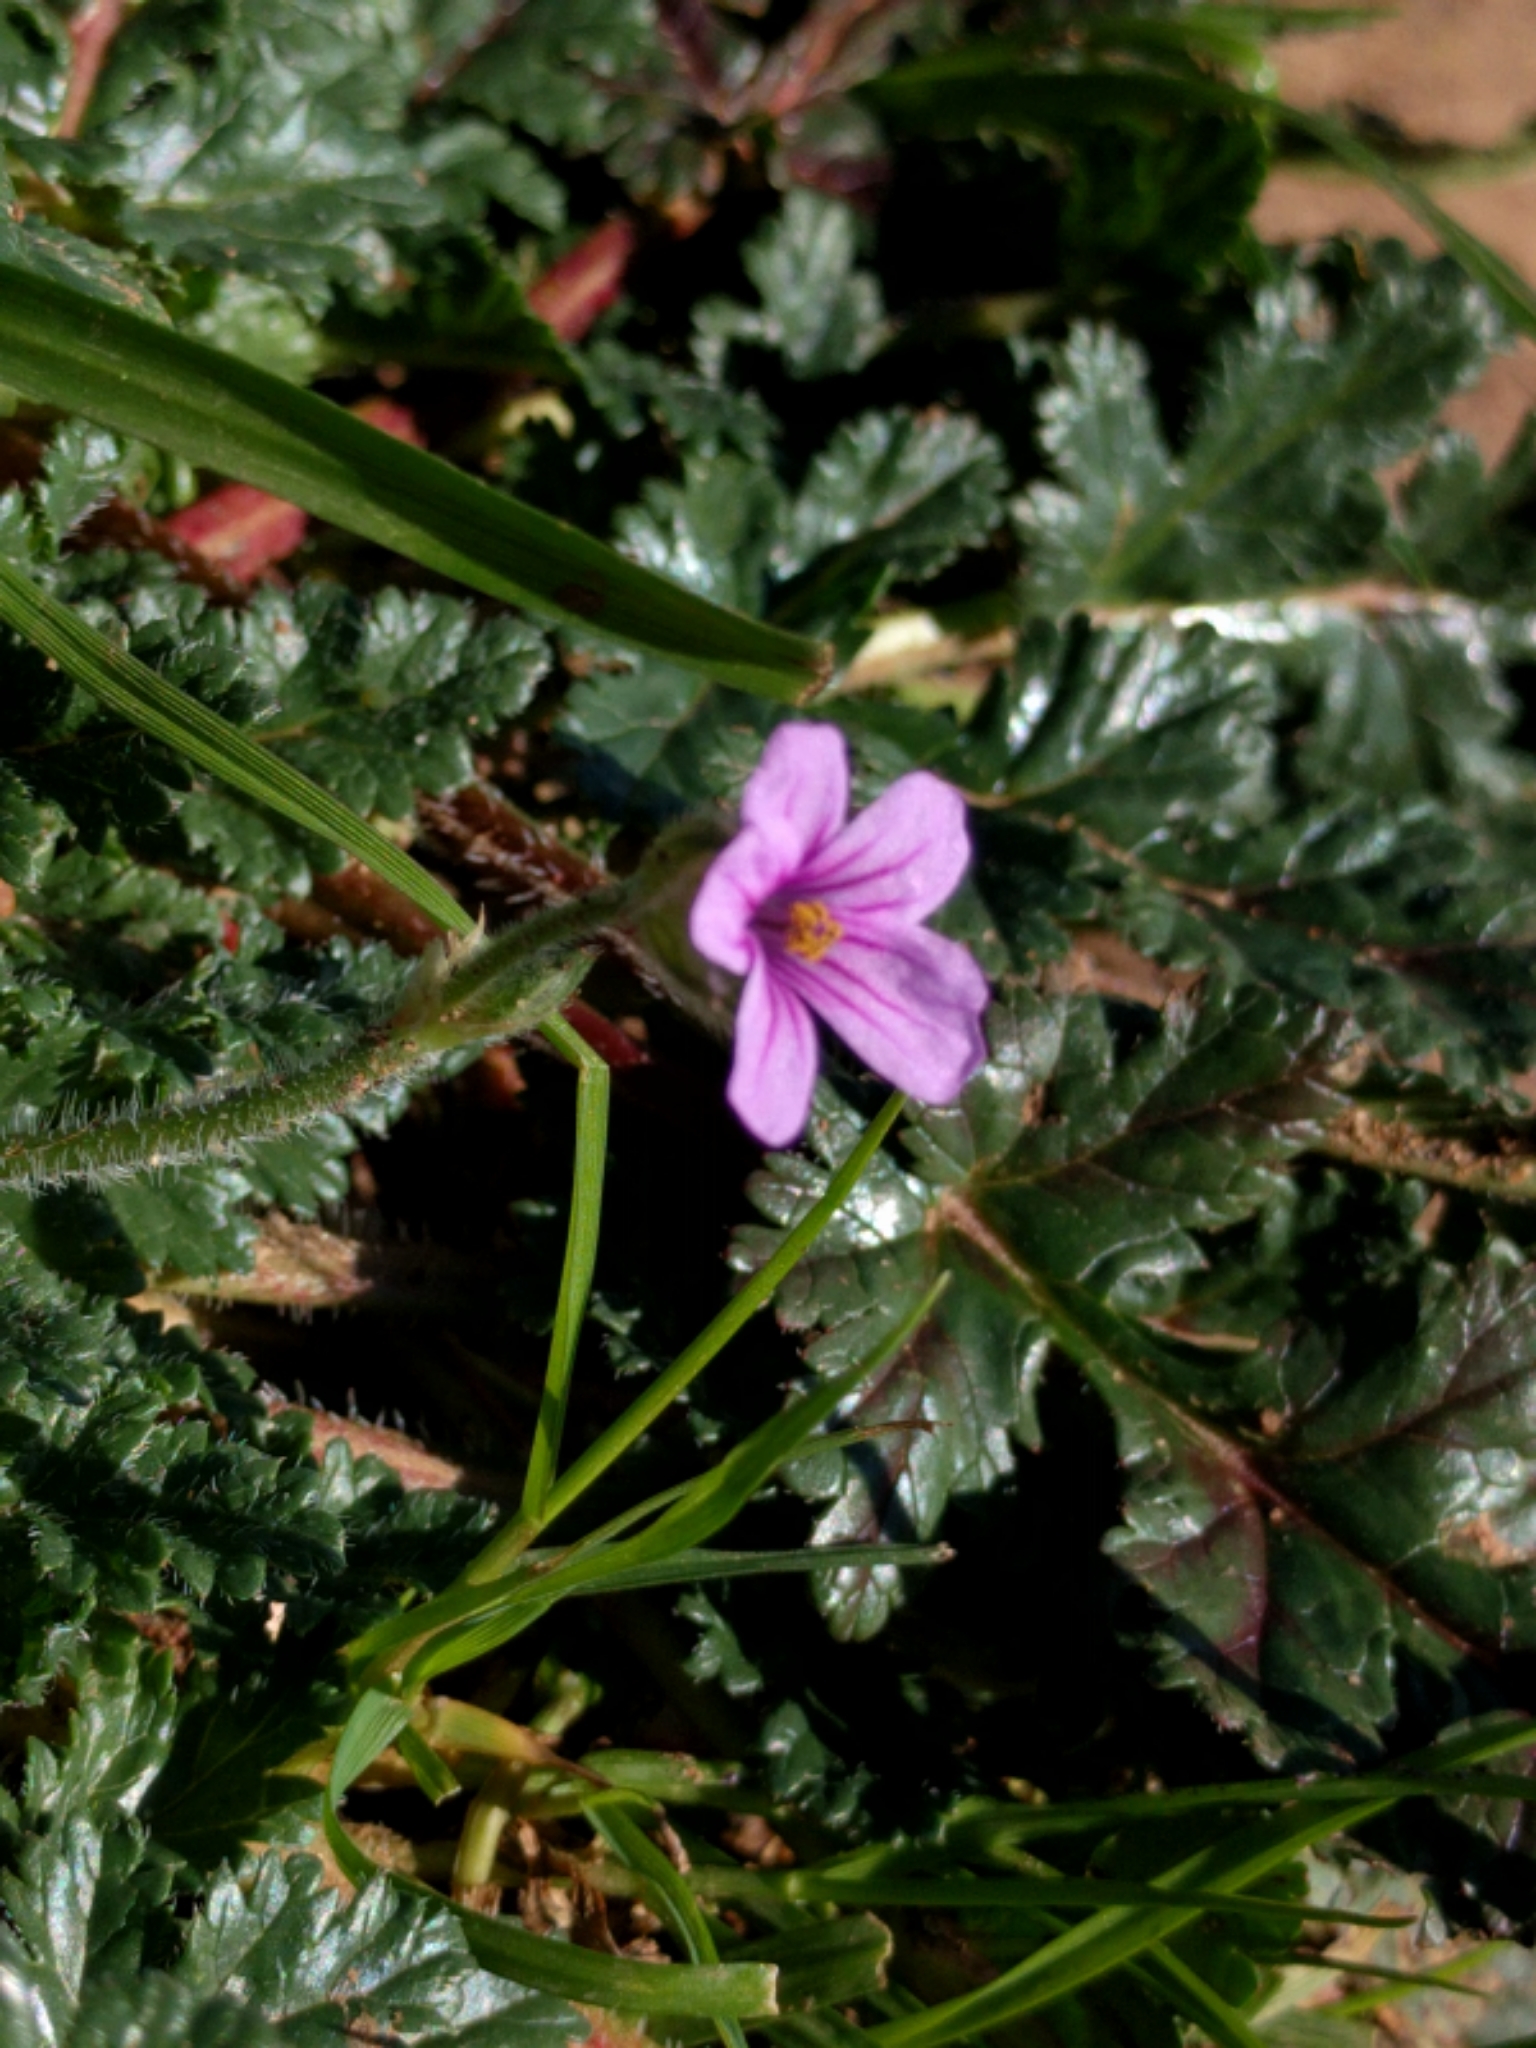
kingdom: Plantae
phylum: Tracheophyta
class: Magnoliopsida
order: Geraniales
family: Geraniaceae
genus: Erodium
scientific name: Erodium botrys
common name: Mediterranean stork's-bill
